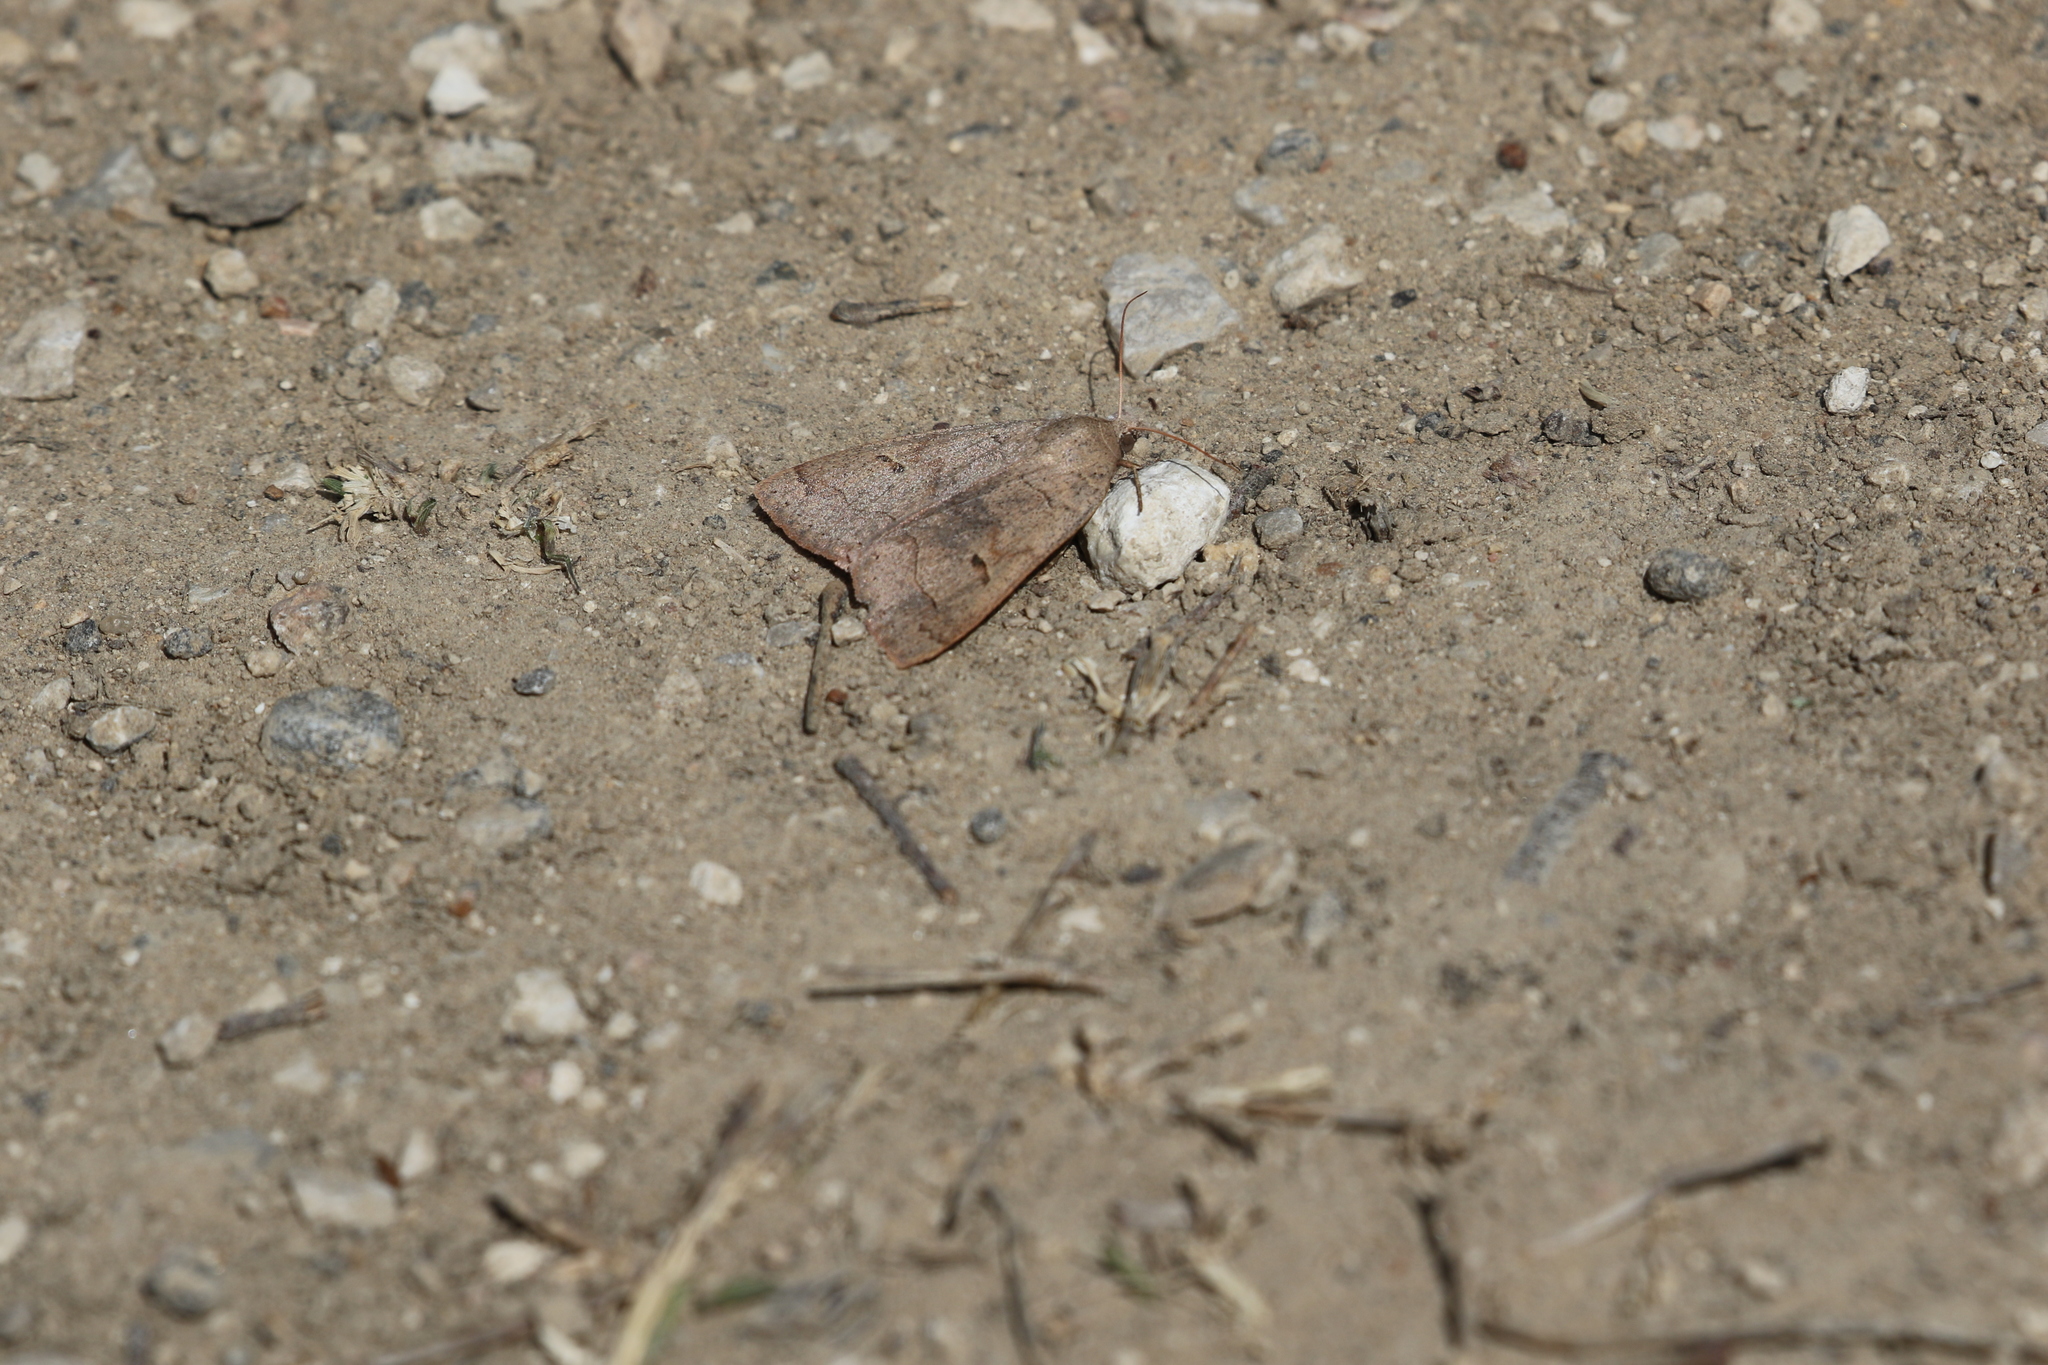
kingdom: Animalia
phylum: Arthropoda
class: Insecta
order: Lepidoptera
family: Erebidae
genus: Phoberia
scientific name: Phoberia atomaris
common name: Common oak moth
